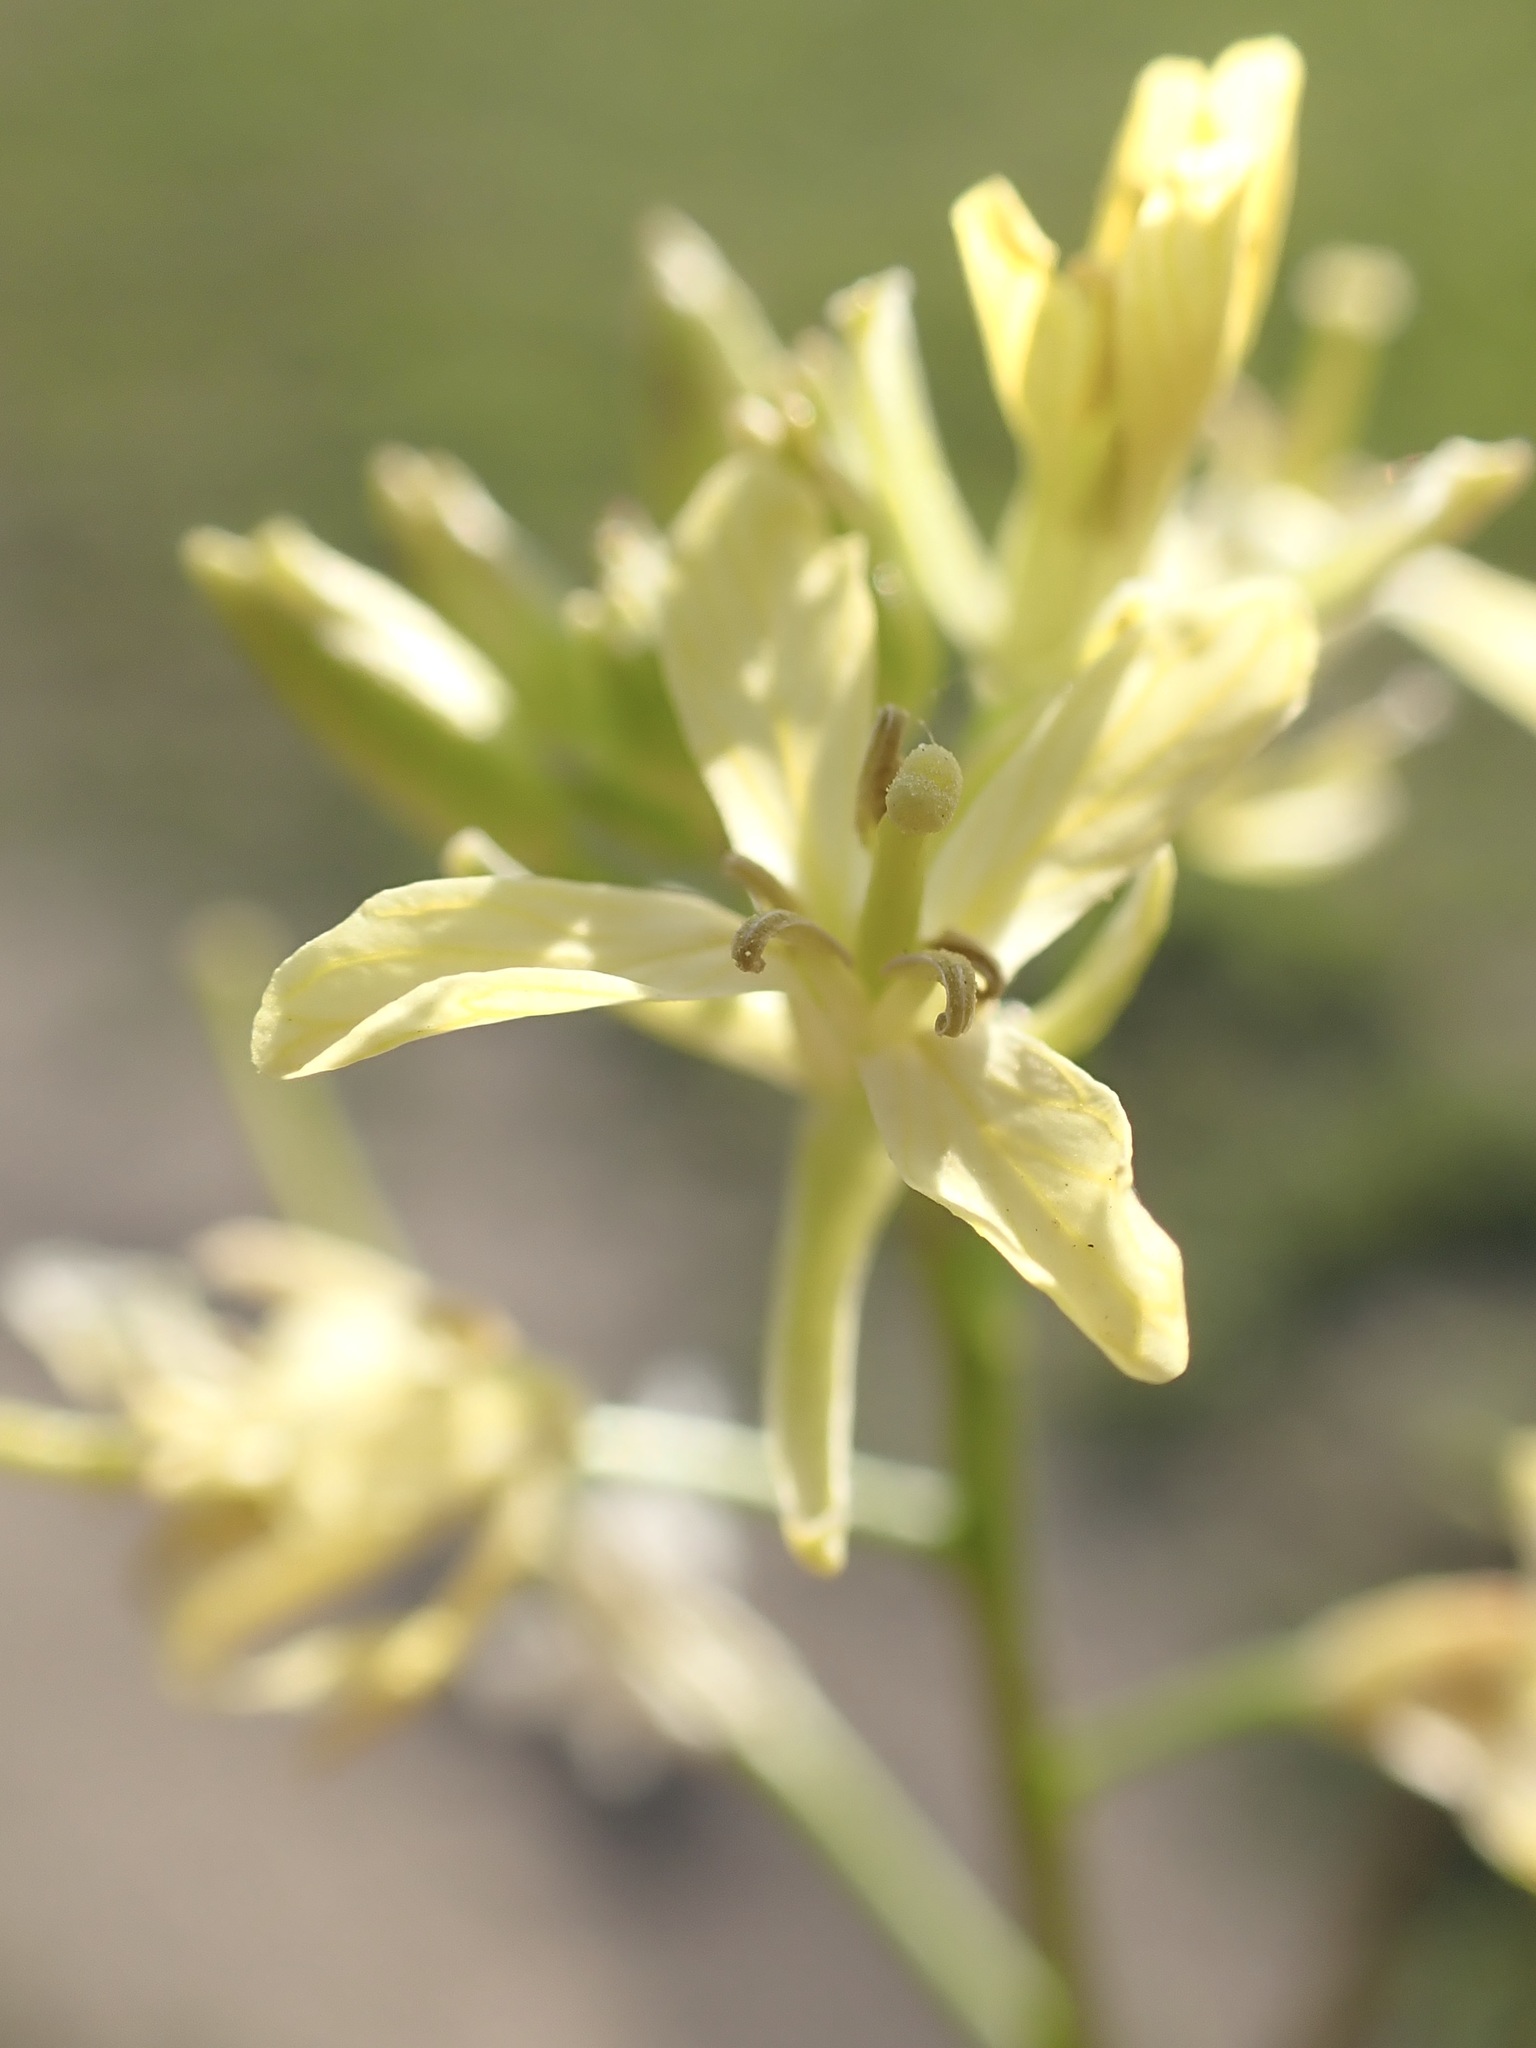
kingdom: Plantae
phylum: Tracheophyta
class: Magnoliopsida
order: Brassicales
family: Brassicaceae
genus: Sisymbrium
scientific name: Sisymbrium altissimum
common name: Tall rocket
